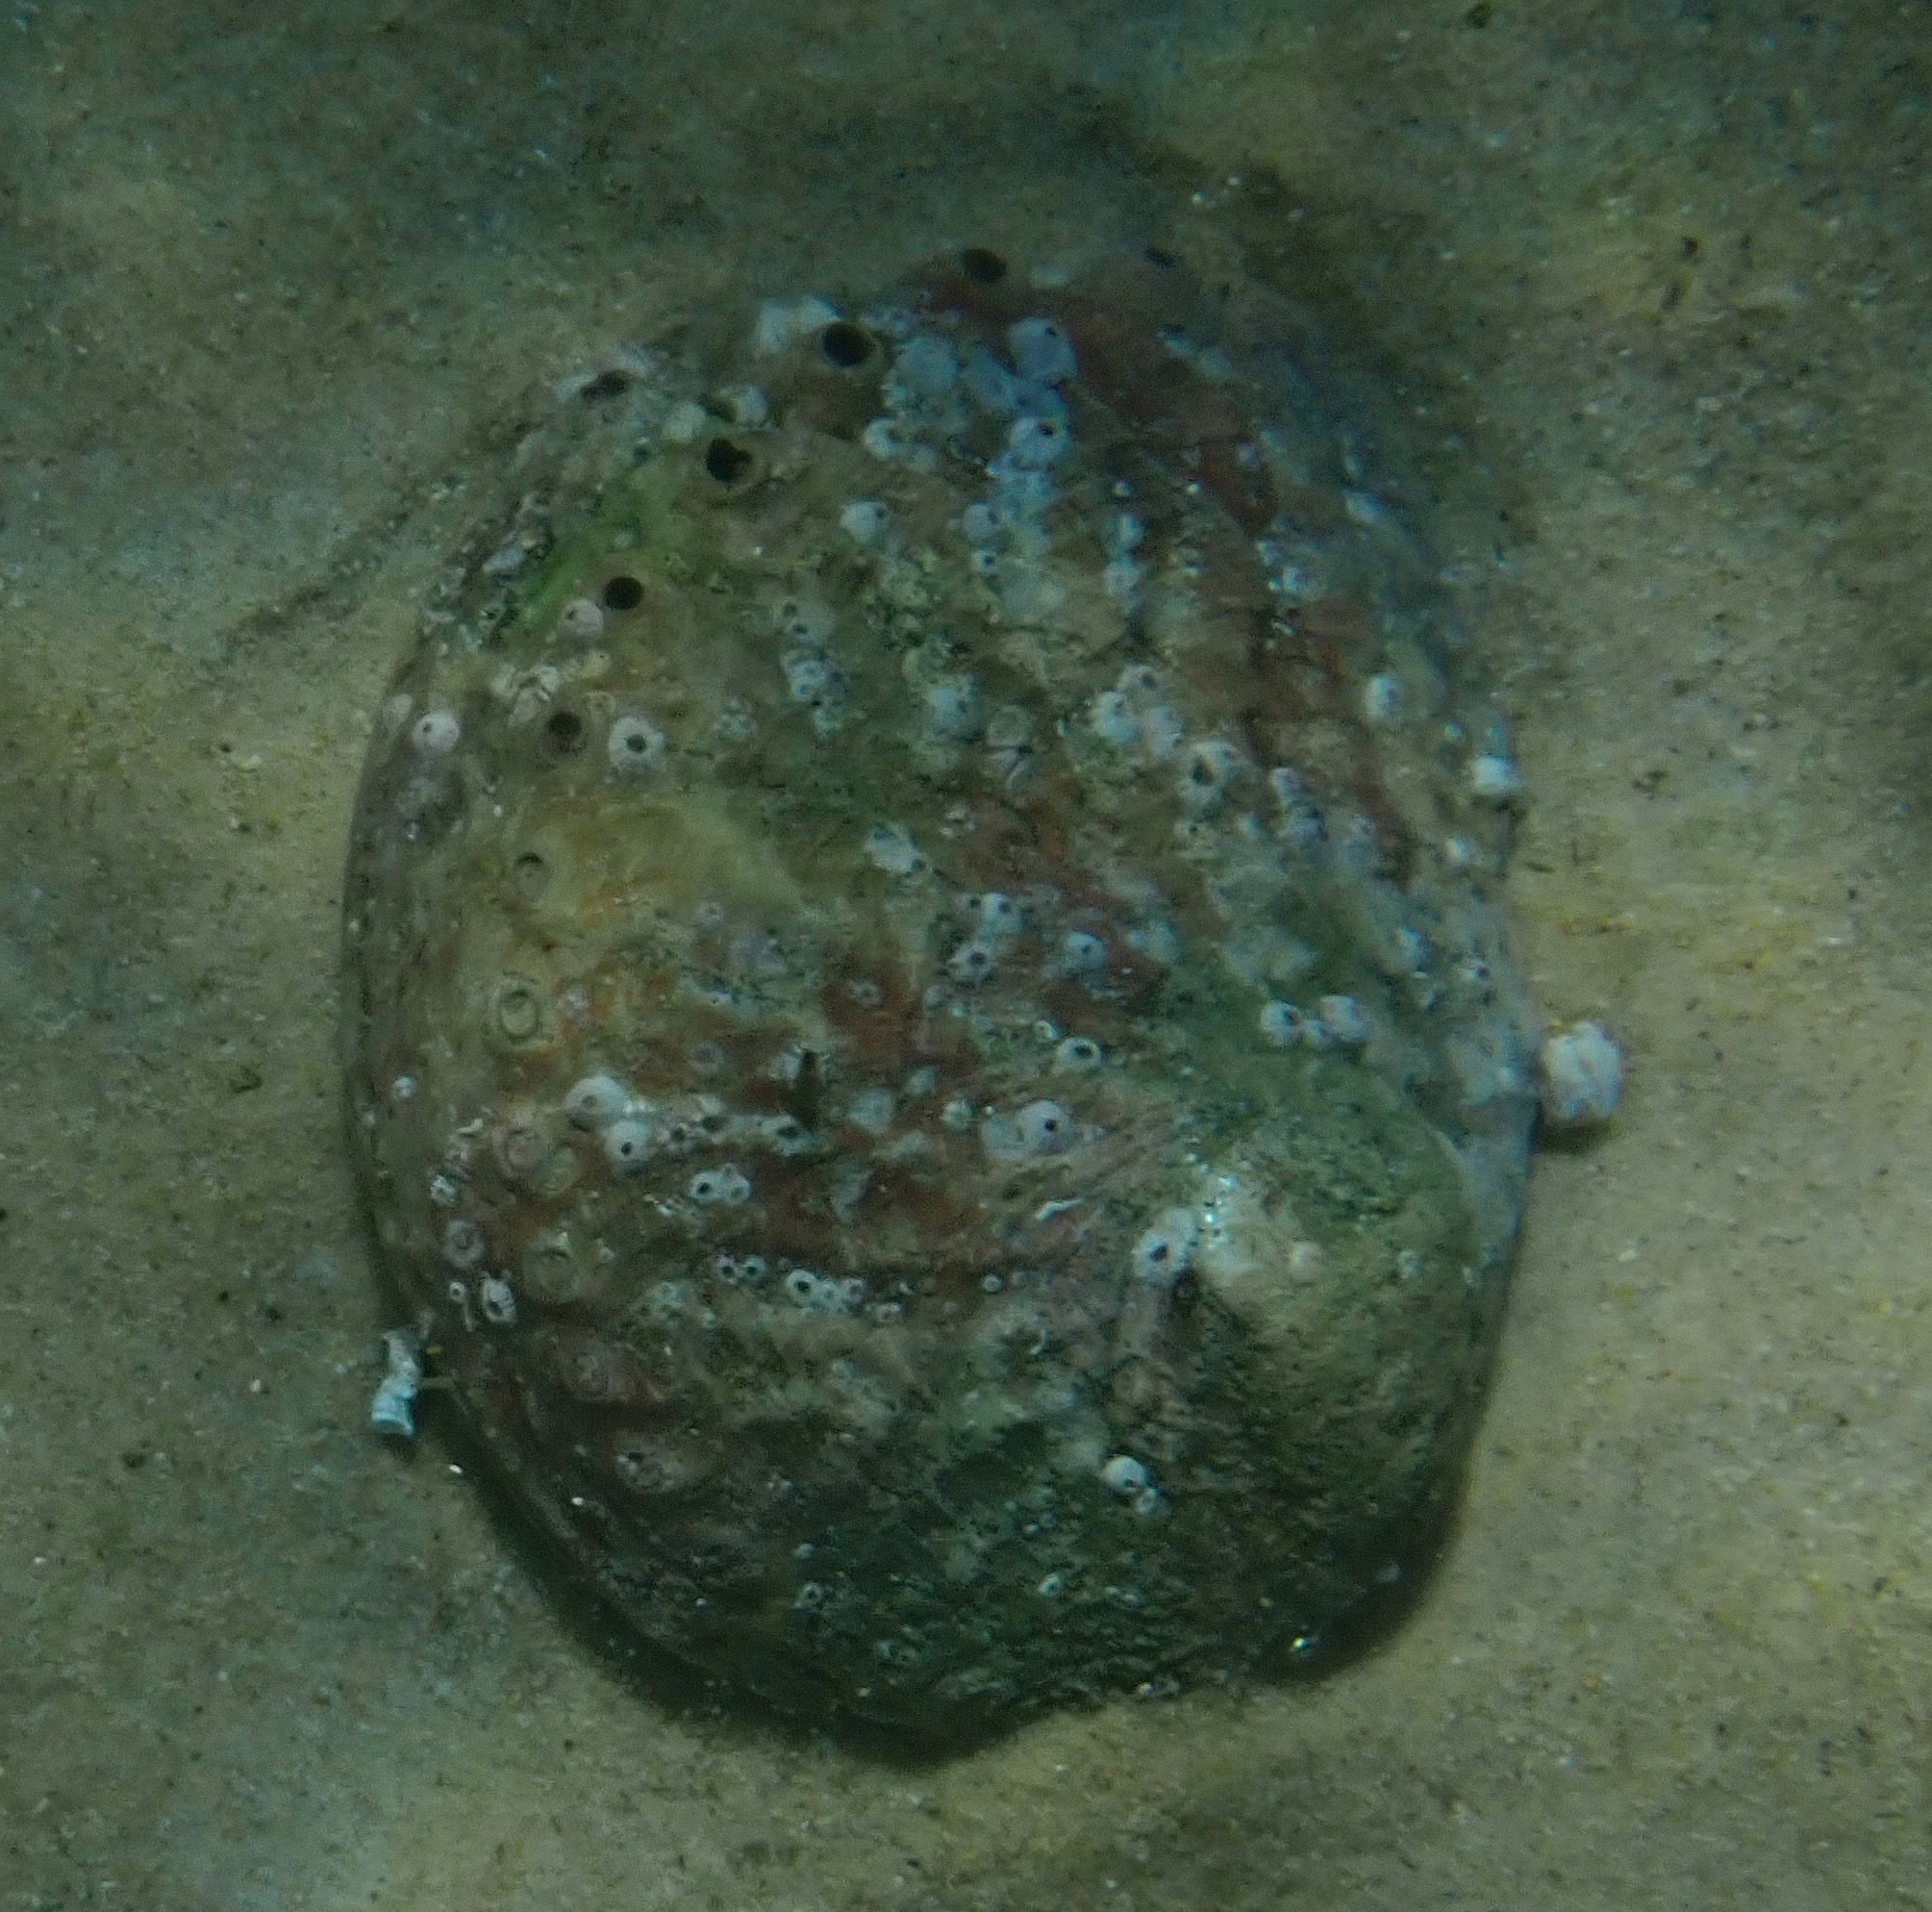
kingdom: Animalia
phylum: Mollusca
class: Gastropoda
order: Lepetellida
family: Haliotidae
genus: Haliotis
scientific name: Haliotis rubra
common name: Blacklip abalone
